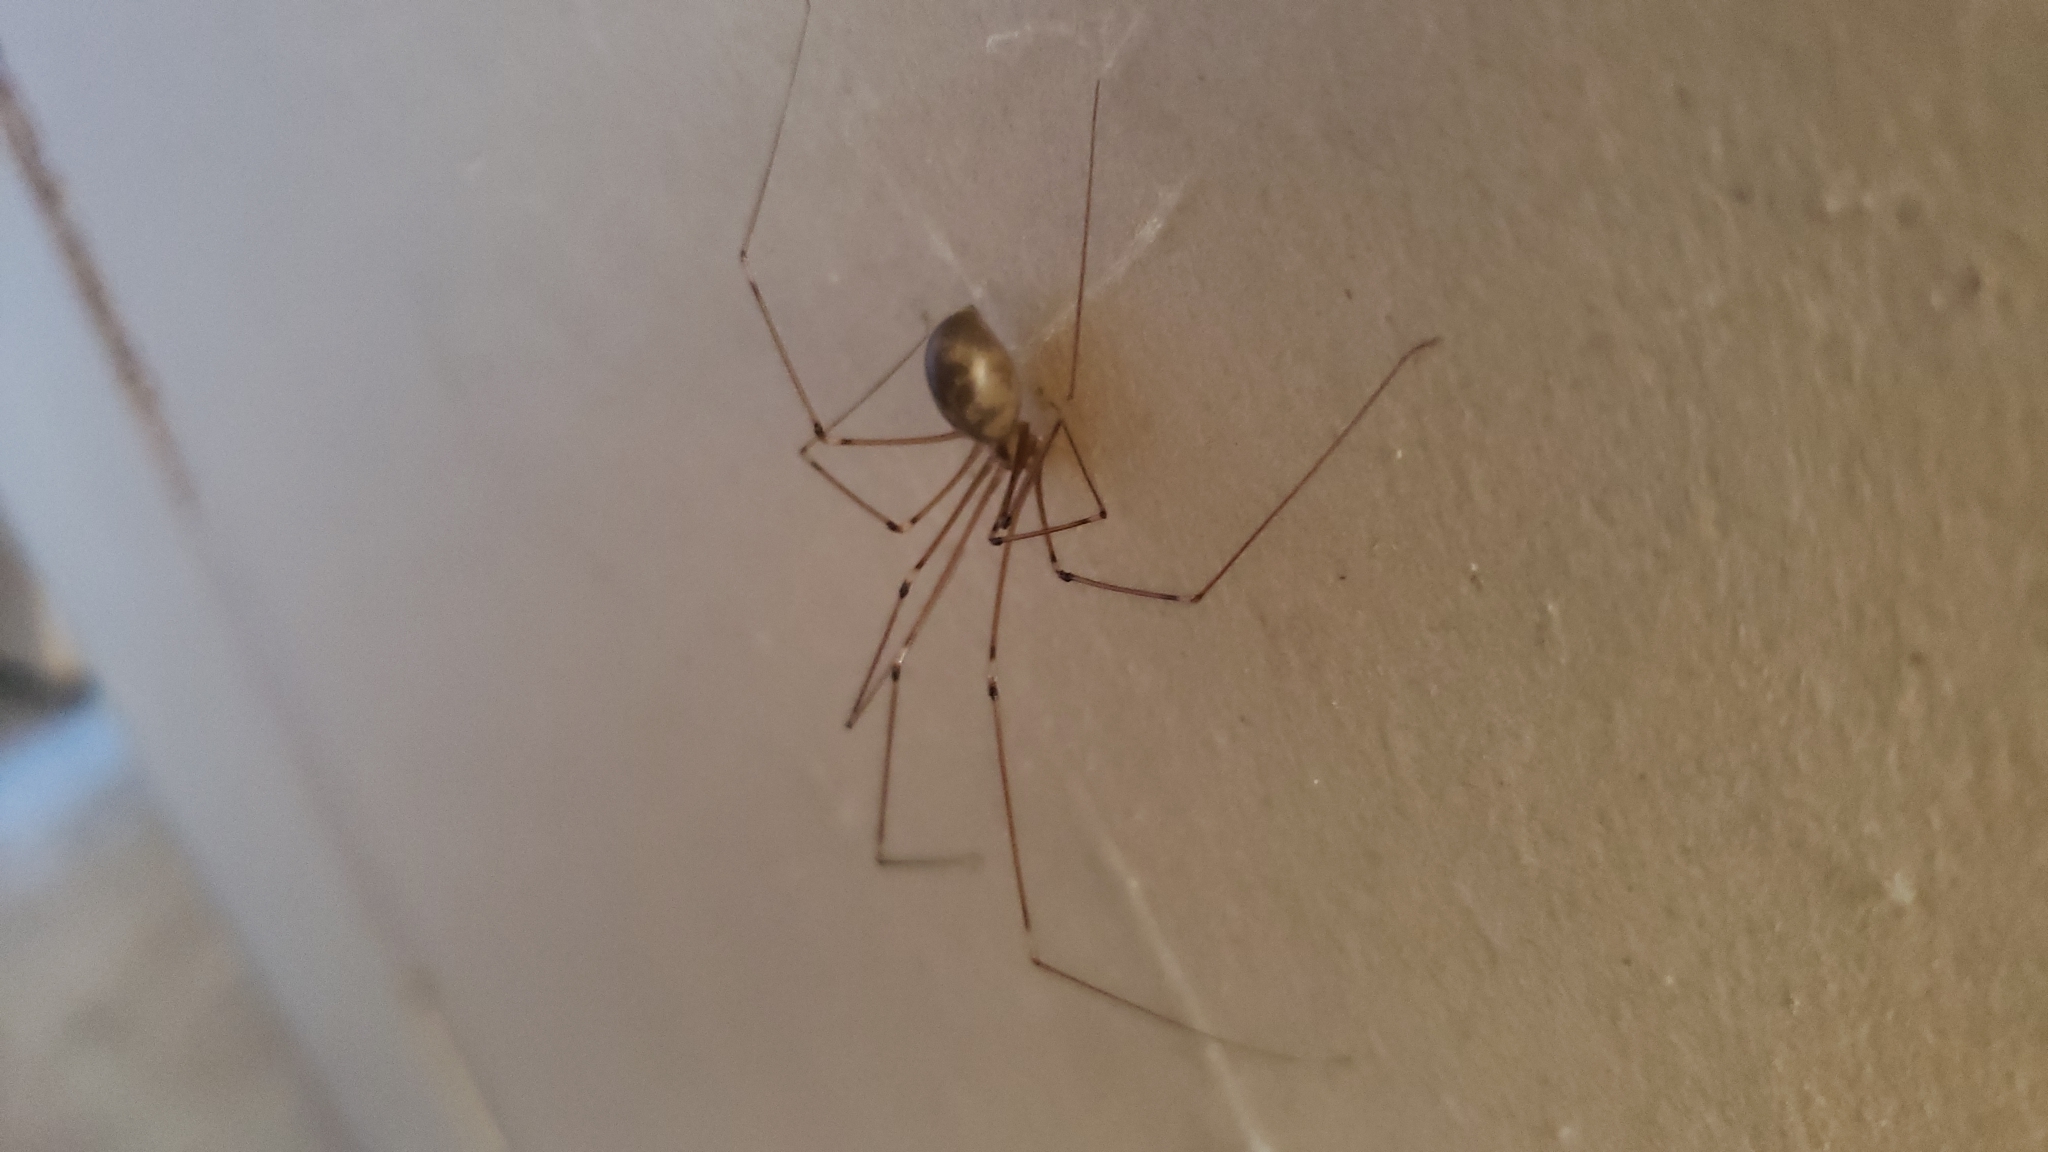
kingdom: Animalia
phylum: Arthropoda
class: Arachnida
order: Araneae
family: Pholcidae
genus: Pholcus
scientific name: Pholcus phalangioides
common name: Longbodied cellar spider
